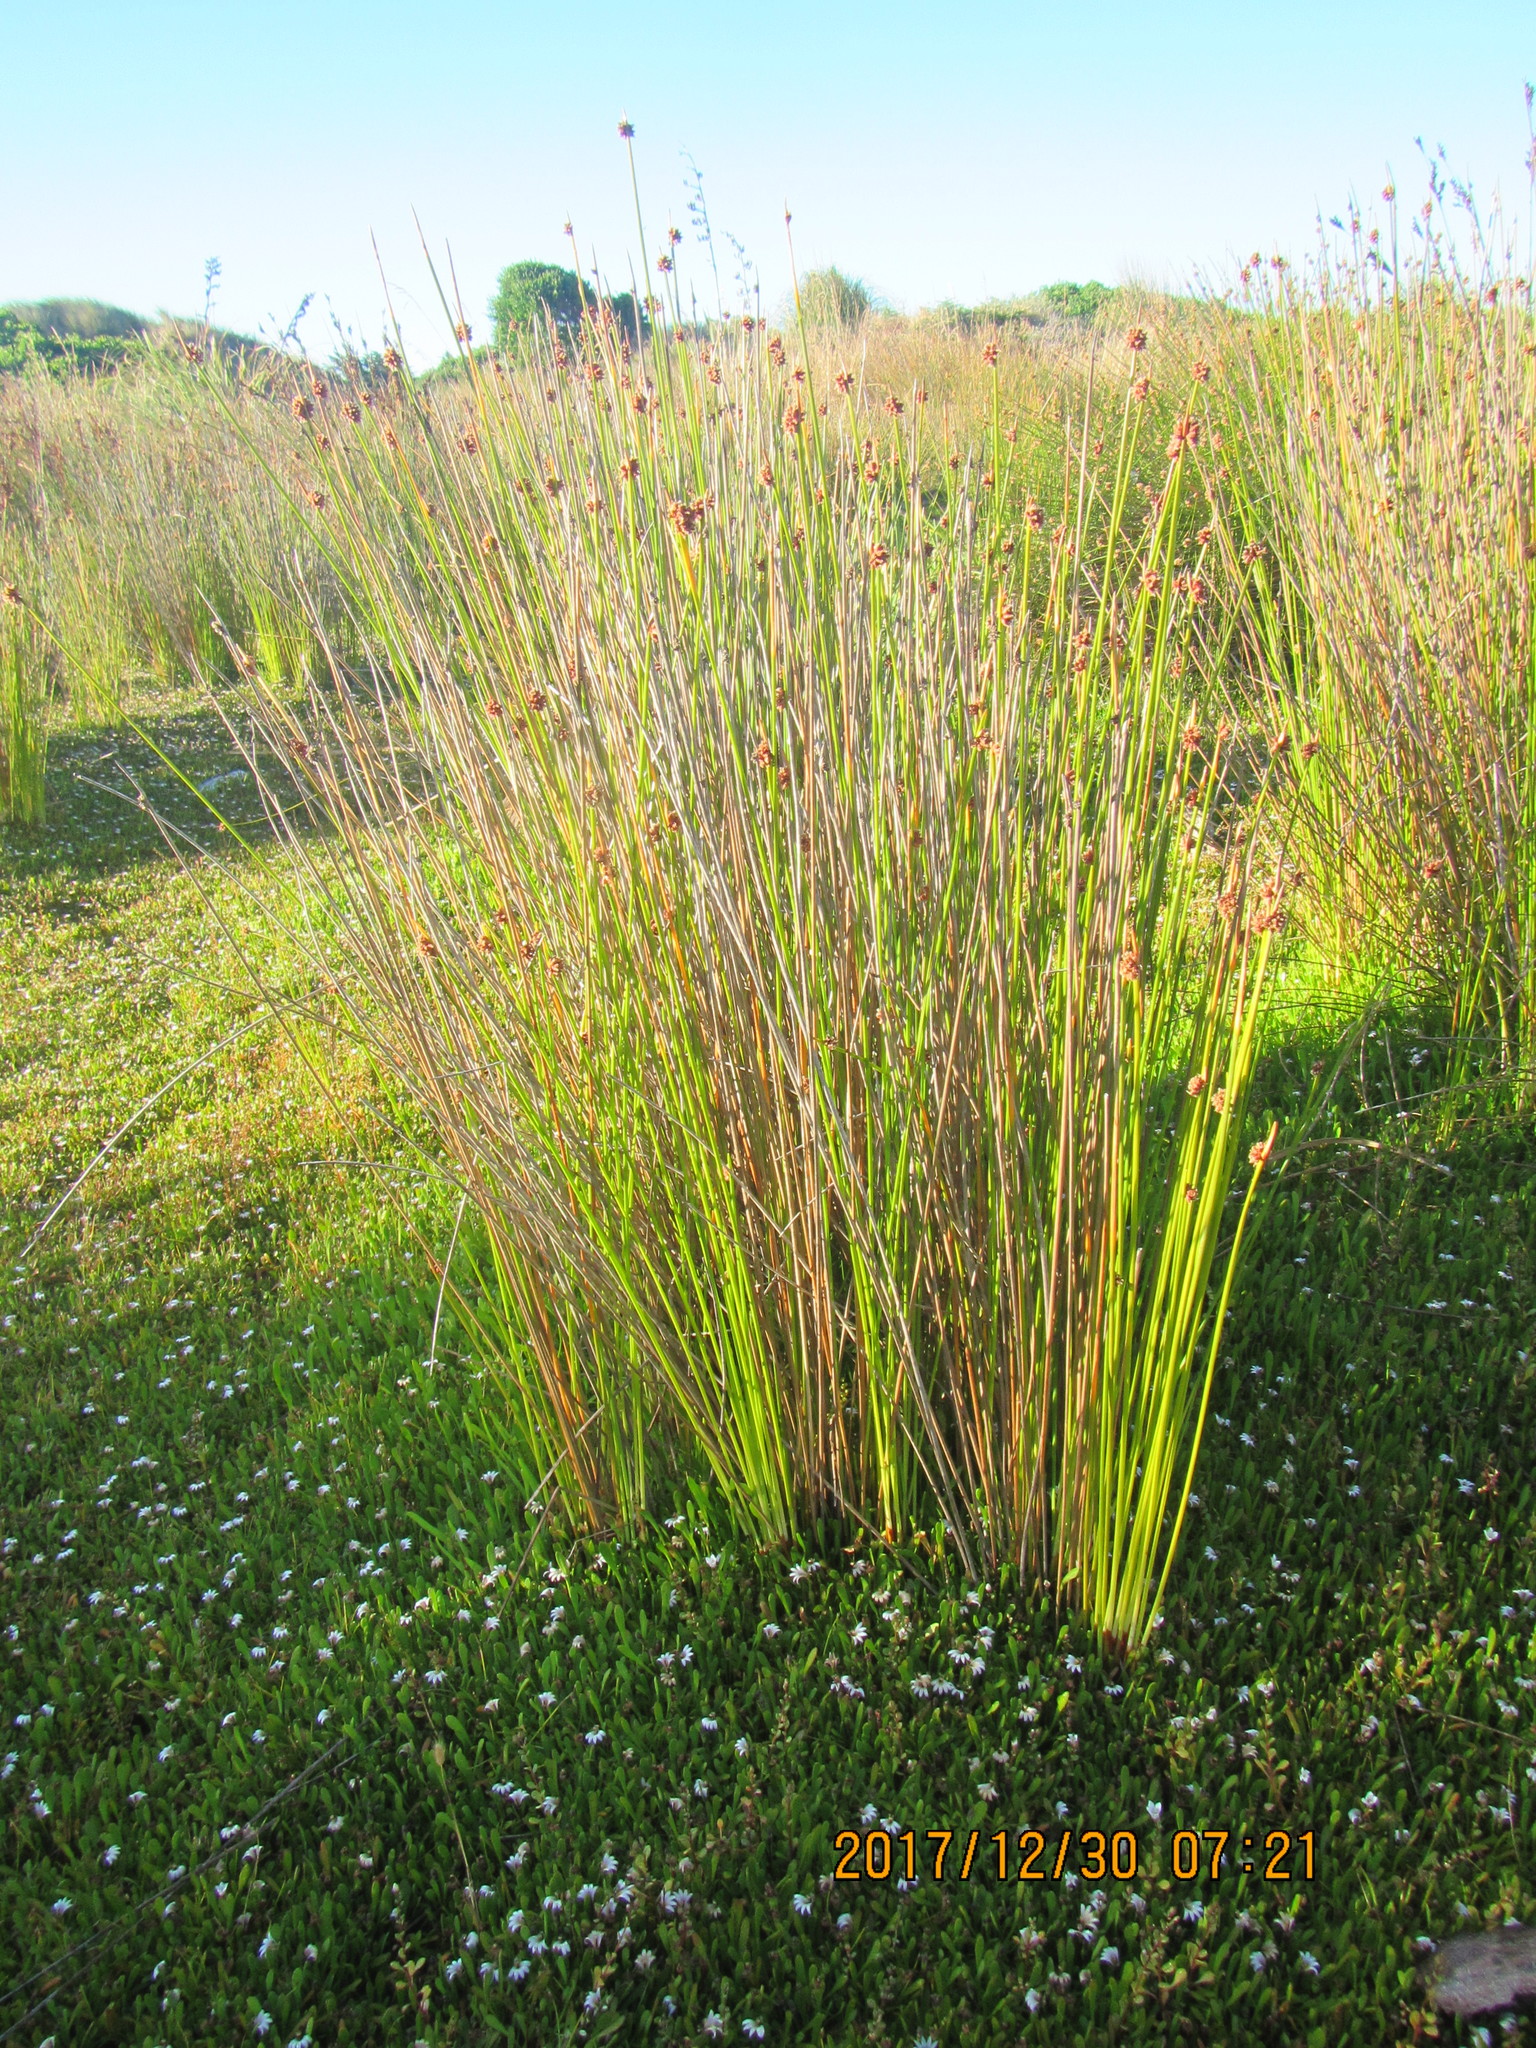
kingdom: Plantae
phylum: Tracheophyta
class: Liliopsida
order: Poales
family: Cyperaceae
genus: Ficinia
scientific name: Ficinia nodosa
